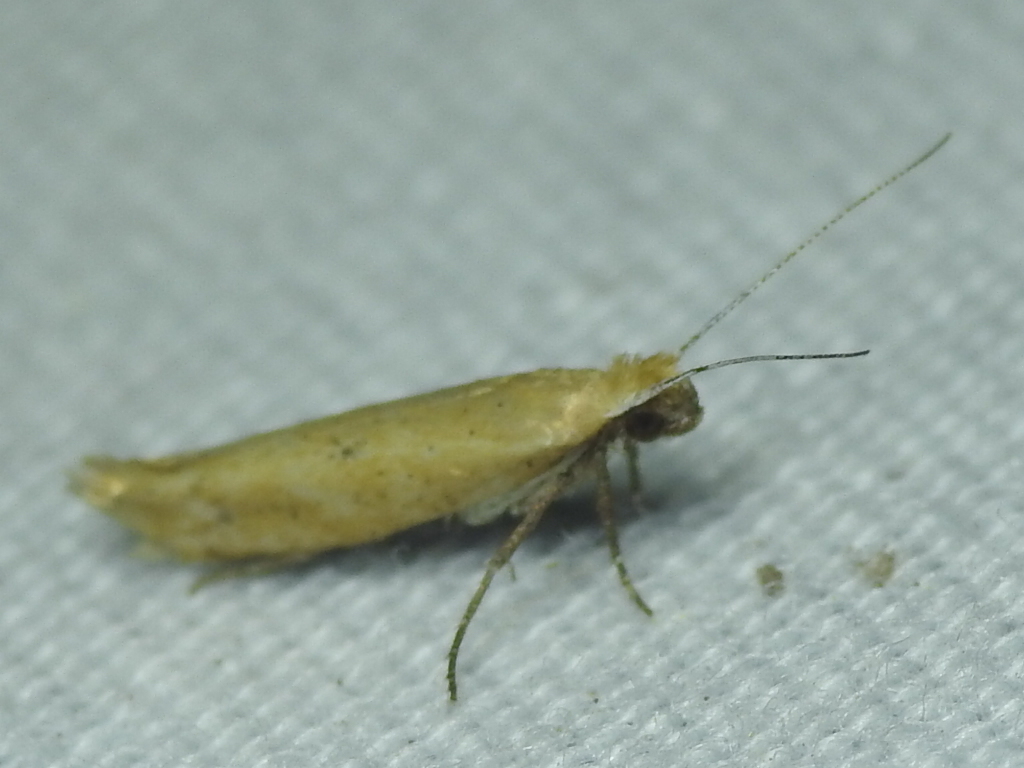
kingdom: Animalia
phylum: Arthropoda
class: Insecta
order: Lepidoptera
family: Ypsolophidae
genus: Ypsolopha
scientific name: Ypsolopha
